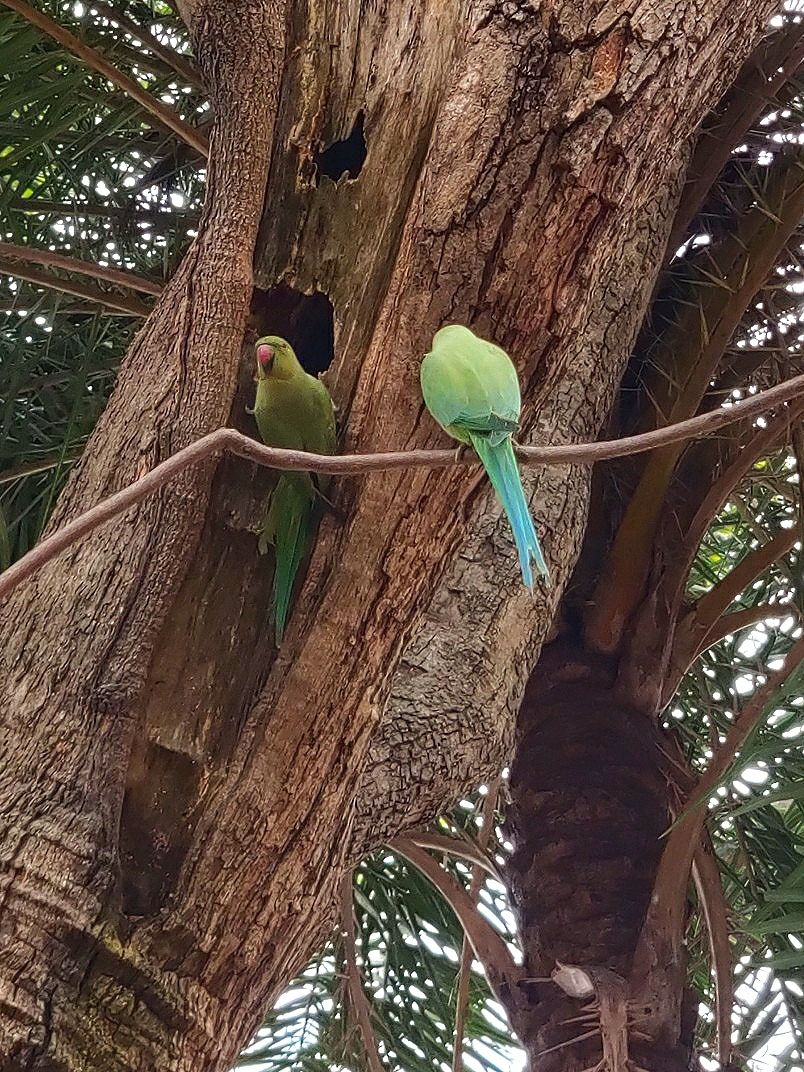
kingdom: Animalia
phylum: Chordata
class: Aves
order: Psittaciformes
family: Psittacidae
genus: Psittacula
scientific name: Psittacula krameri
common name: Rose-ringed parakeet
